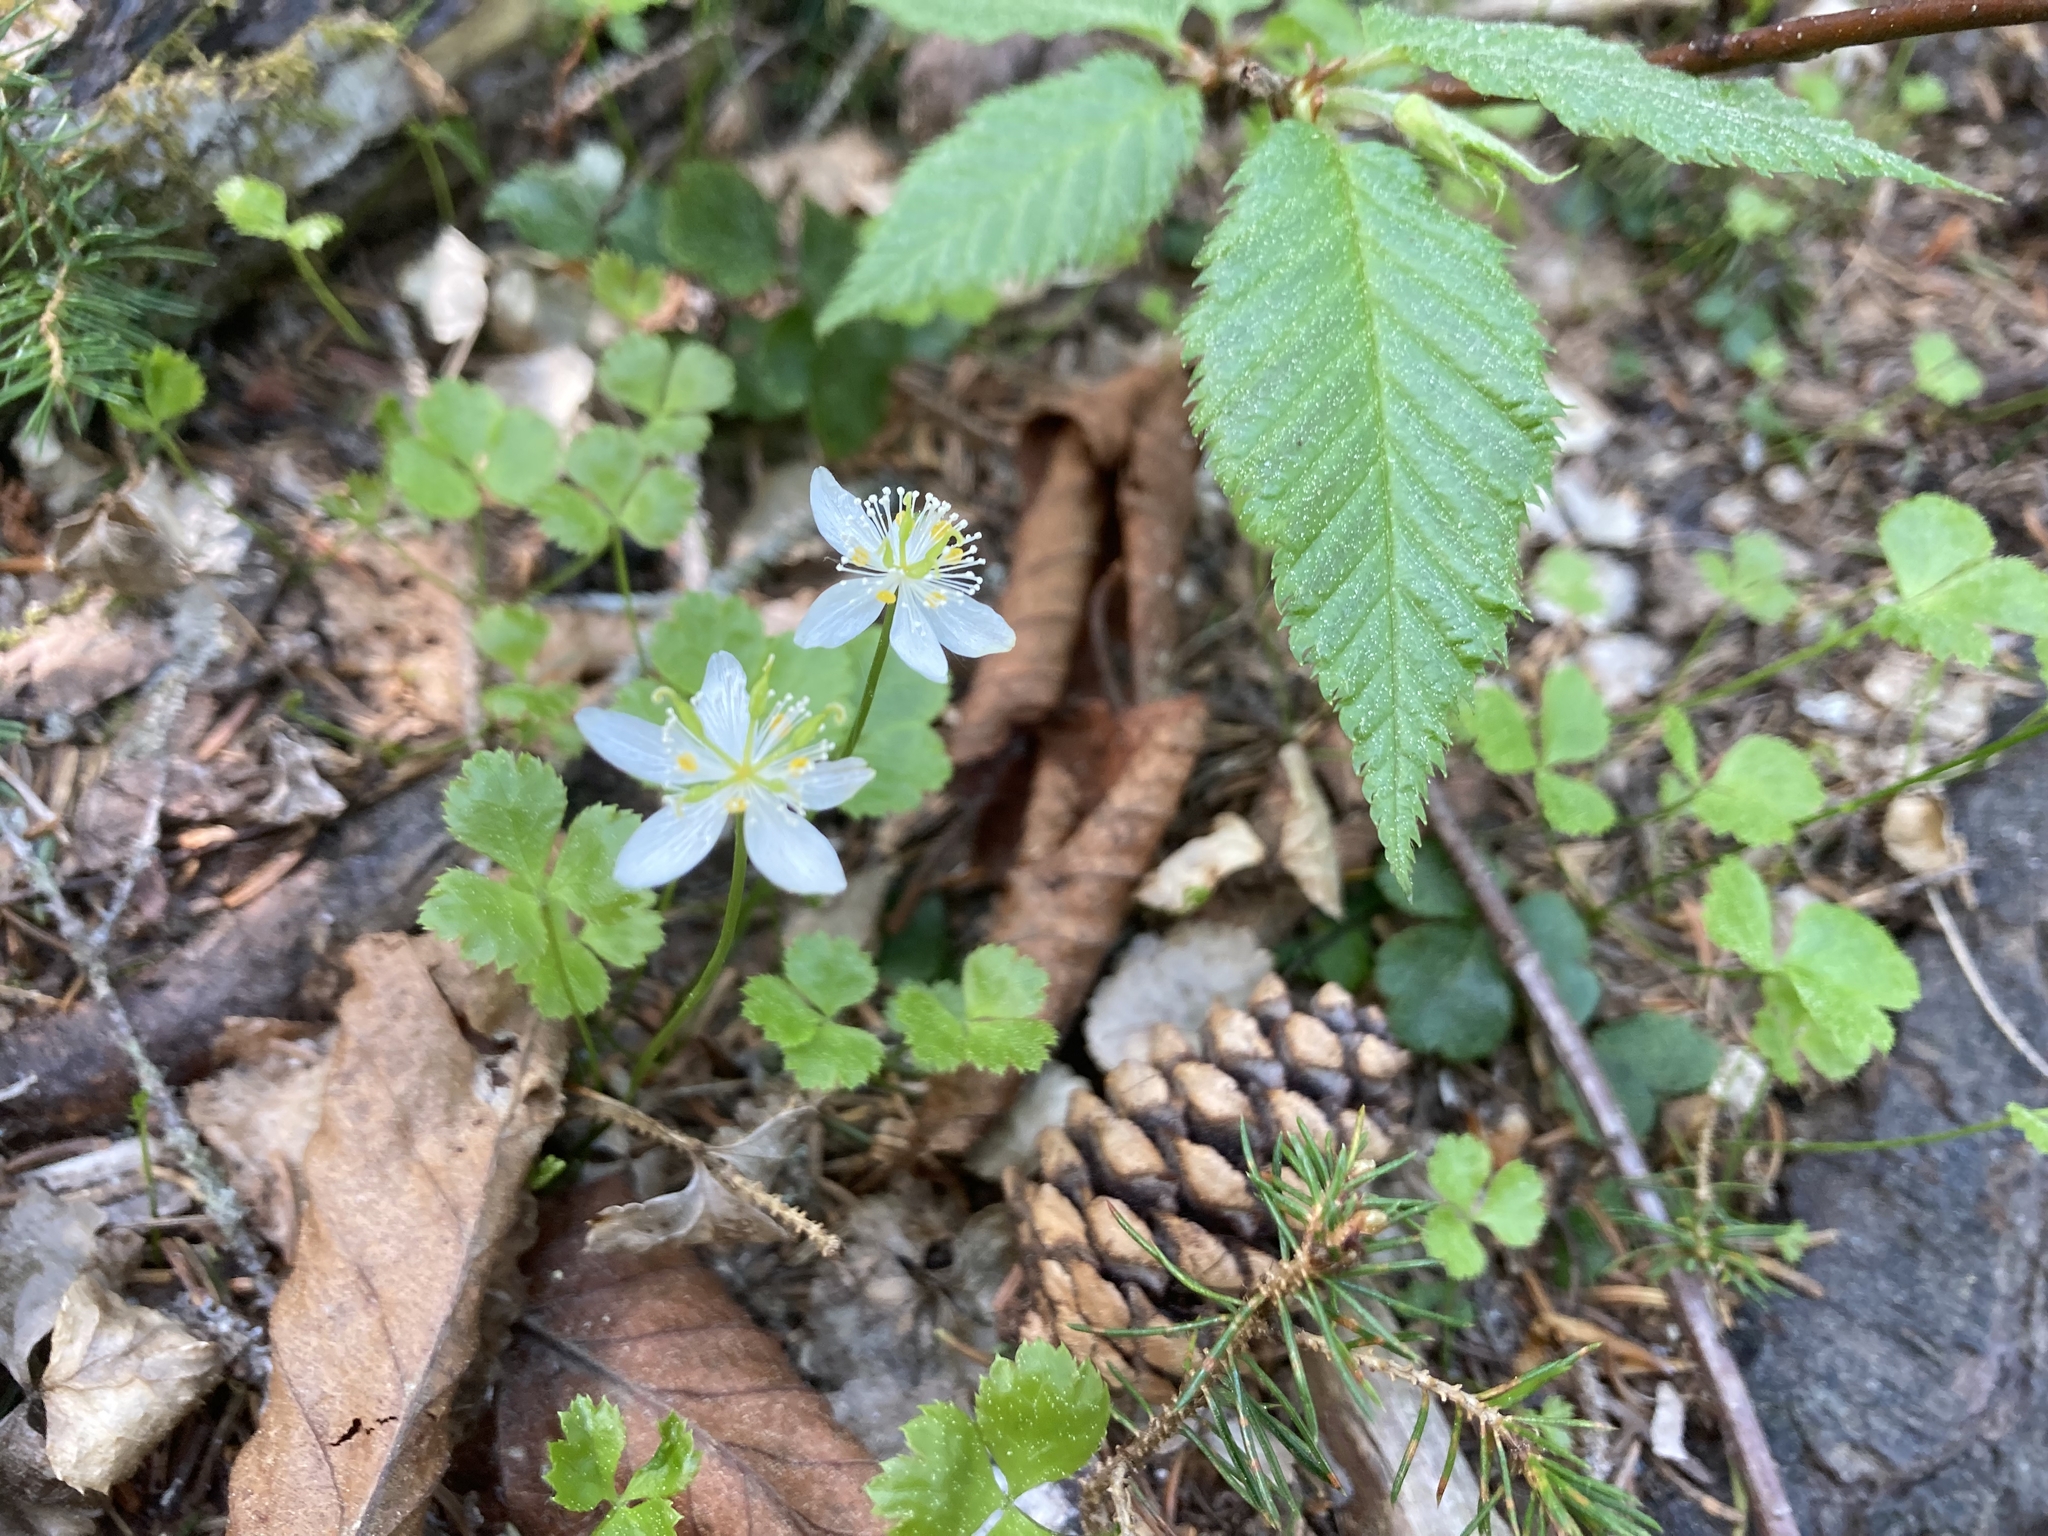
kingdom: Plantae
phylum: Tracheophyta
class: Magnoliopsida
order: Ranunculales
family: Ranunculaceae
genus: Coptis
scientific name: Coptis trifolia
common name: Canker-root
